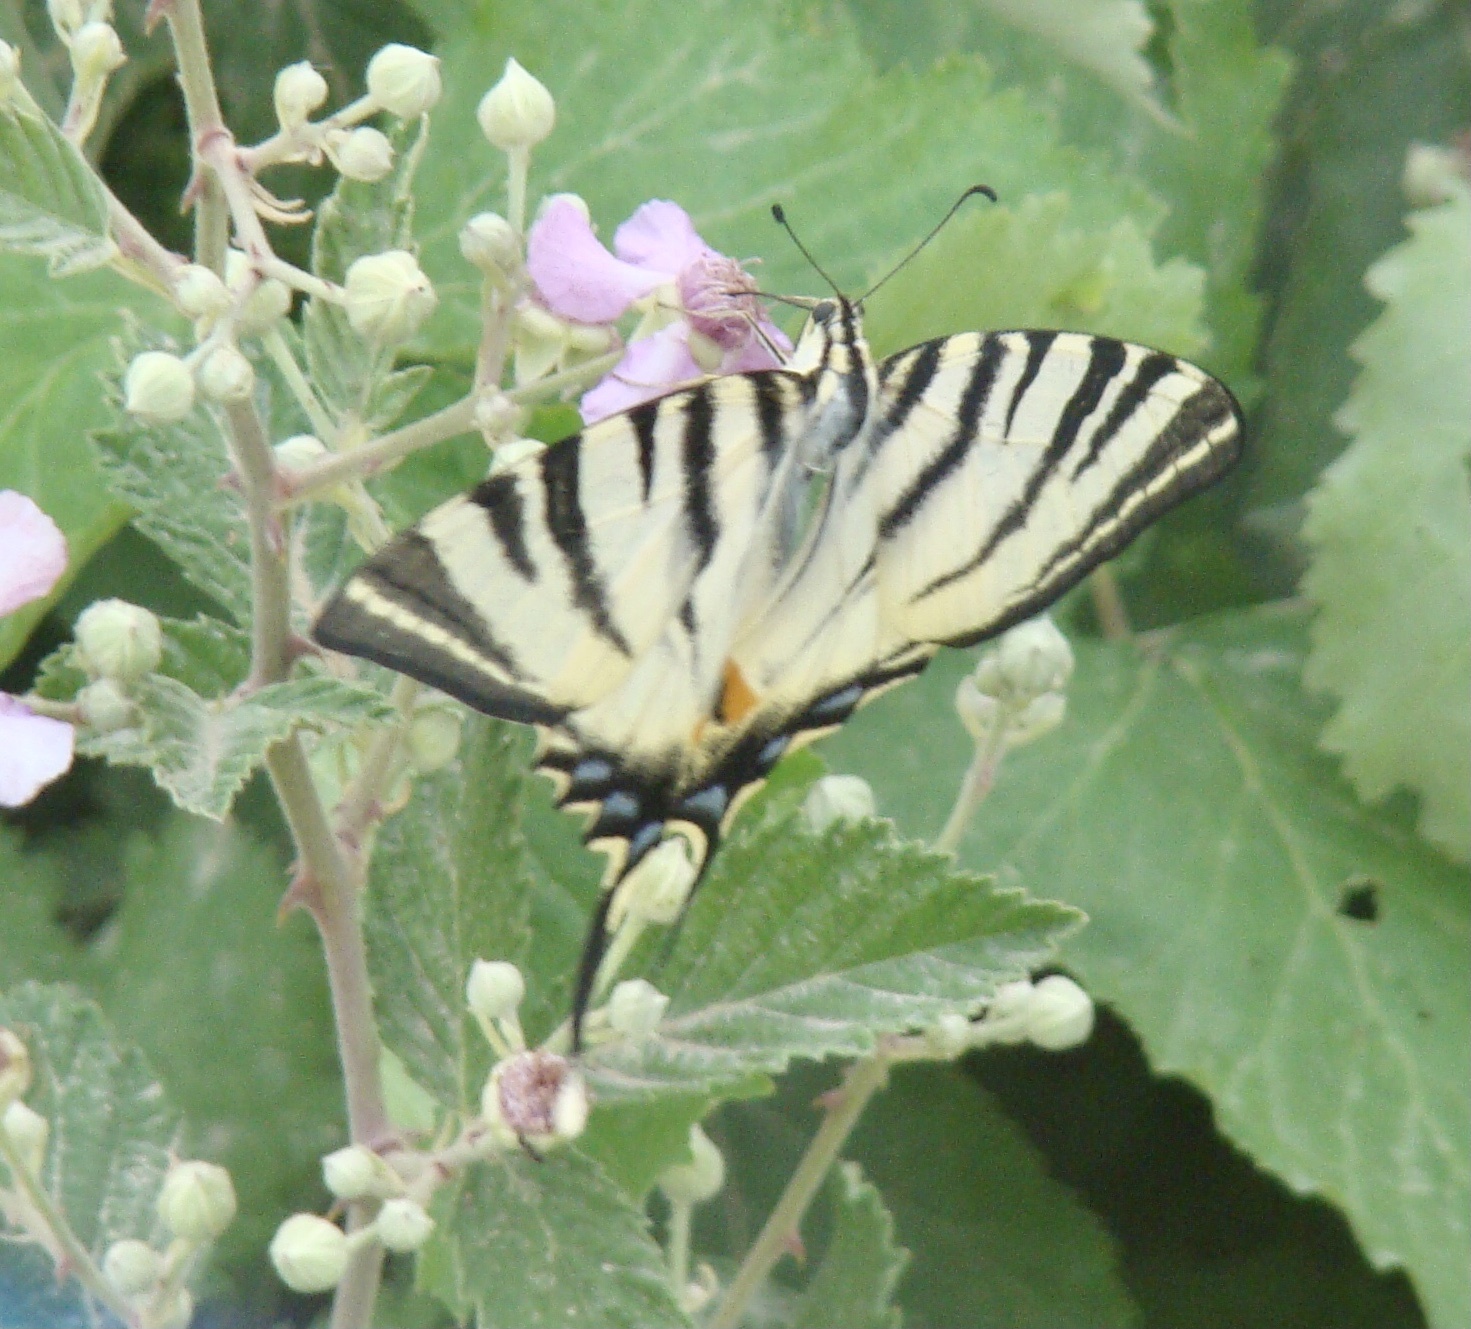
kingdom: Animalia
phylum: Arthropoda
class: Insecta
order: Lepidoptera
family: Papilionidae
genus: Iphiclides
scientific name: Iphiclides podalirius
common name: Scarce swallowtail
